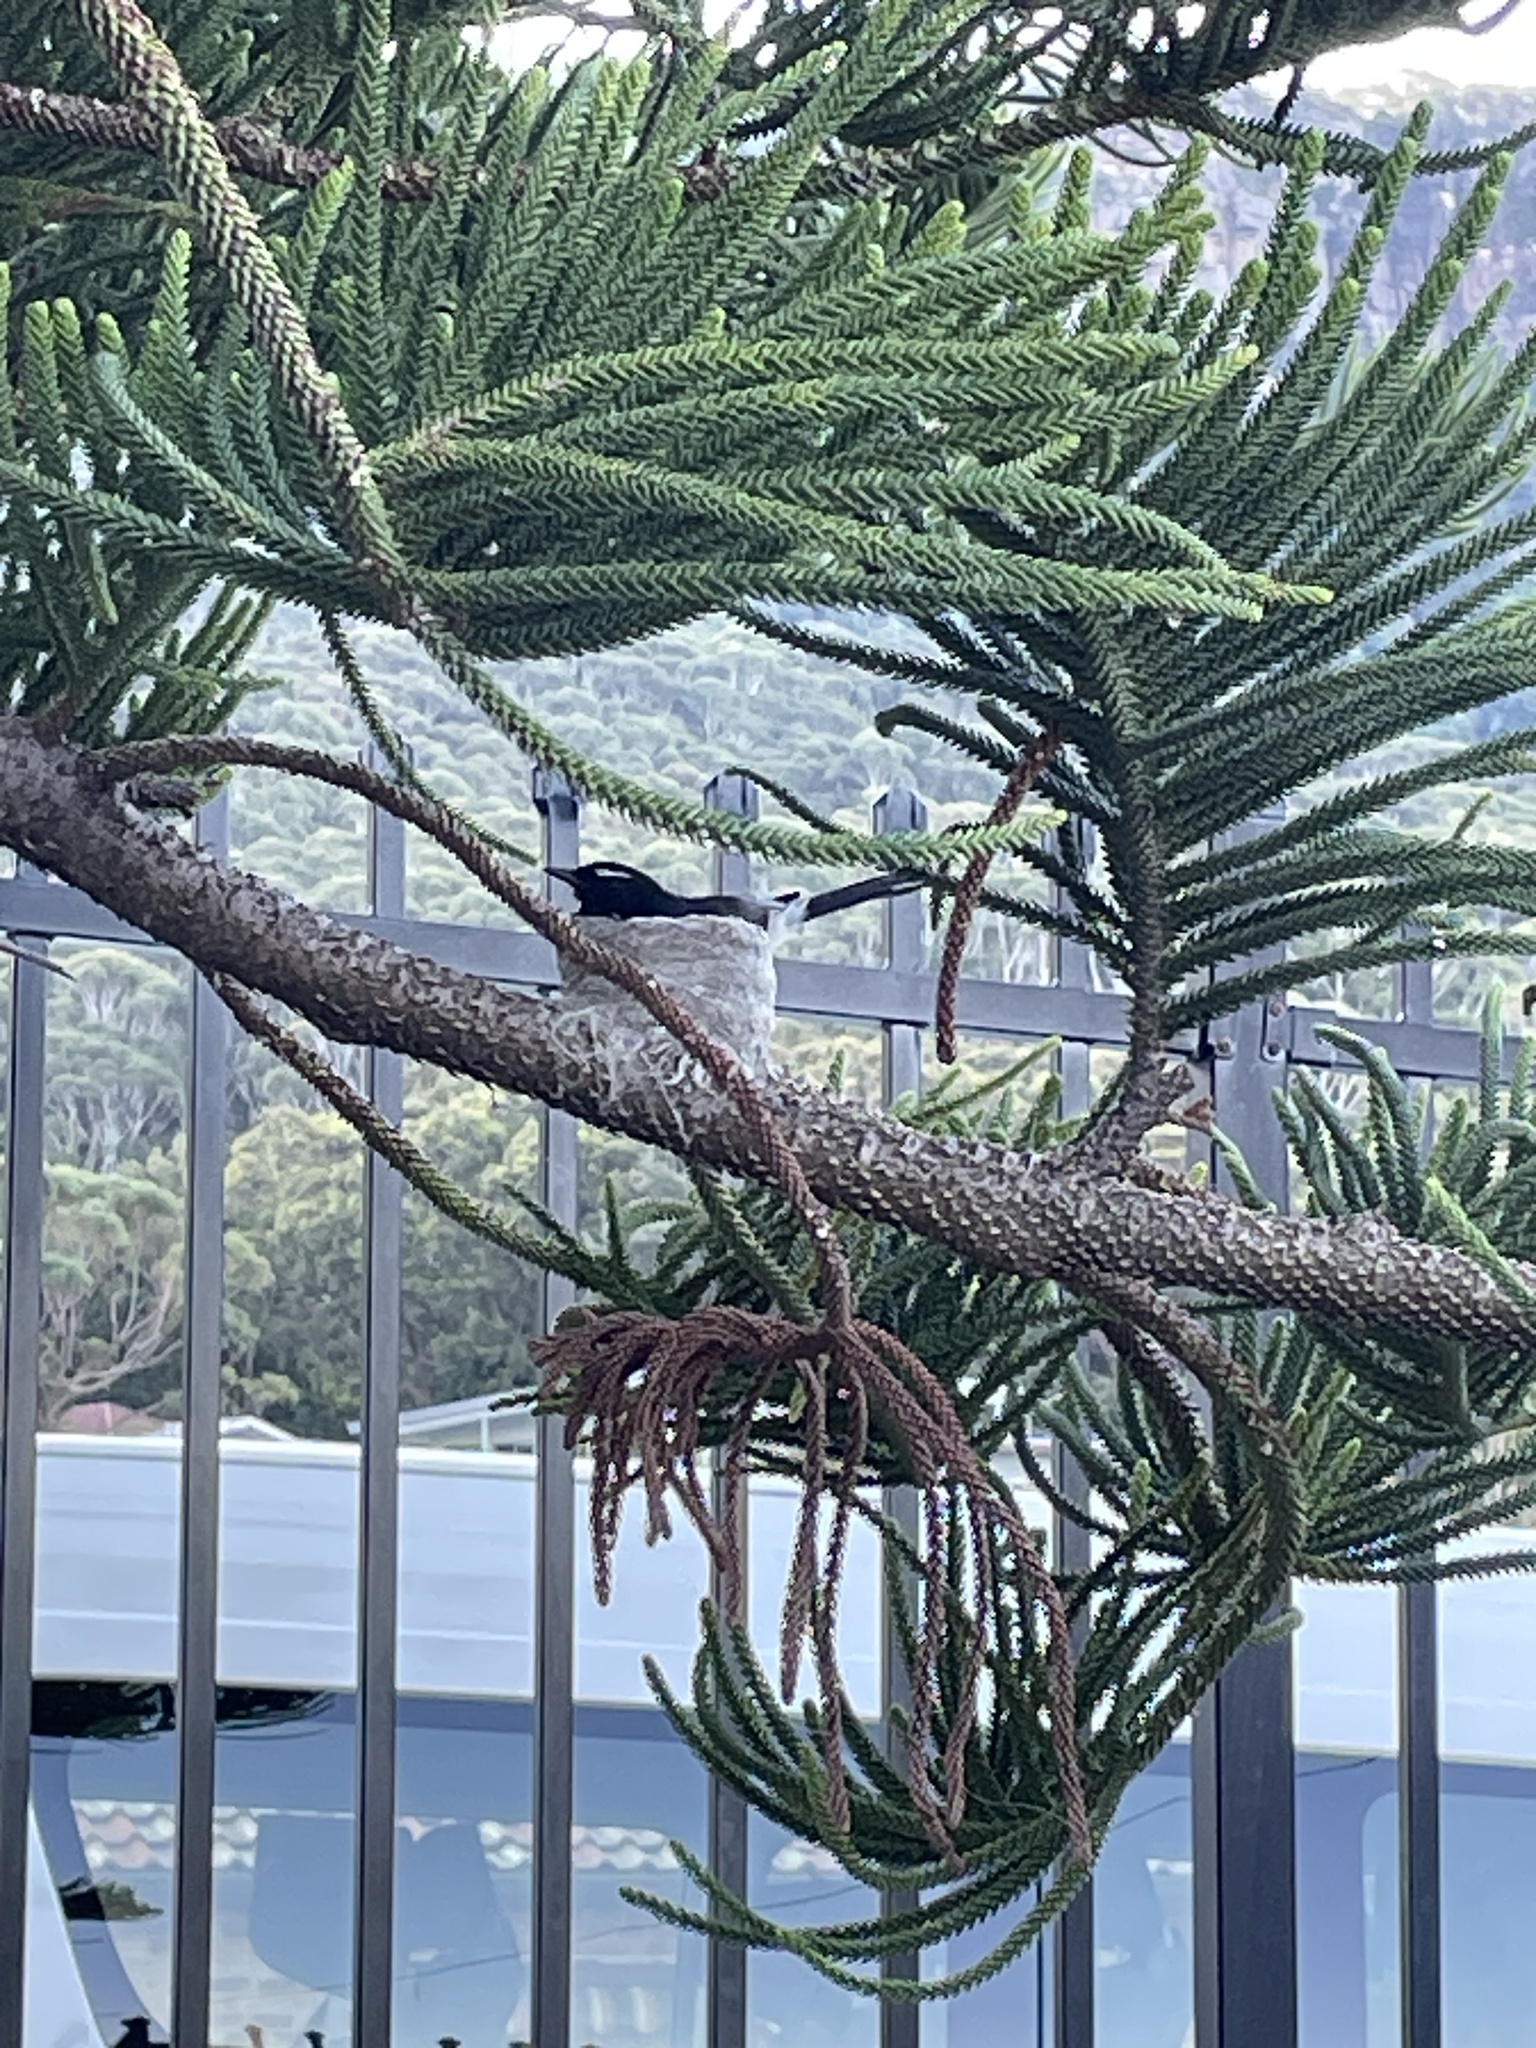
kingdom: Animalia
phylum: Chordata
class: Aves
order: Passeriformes
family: Rhipiduridae
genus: Rhipidura
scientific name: Rhipidura leucophrys
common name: Willie wagtail
